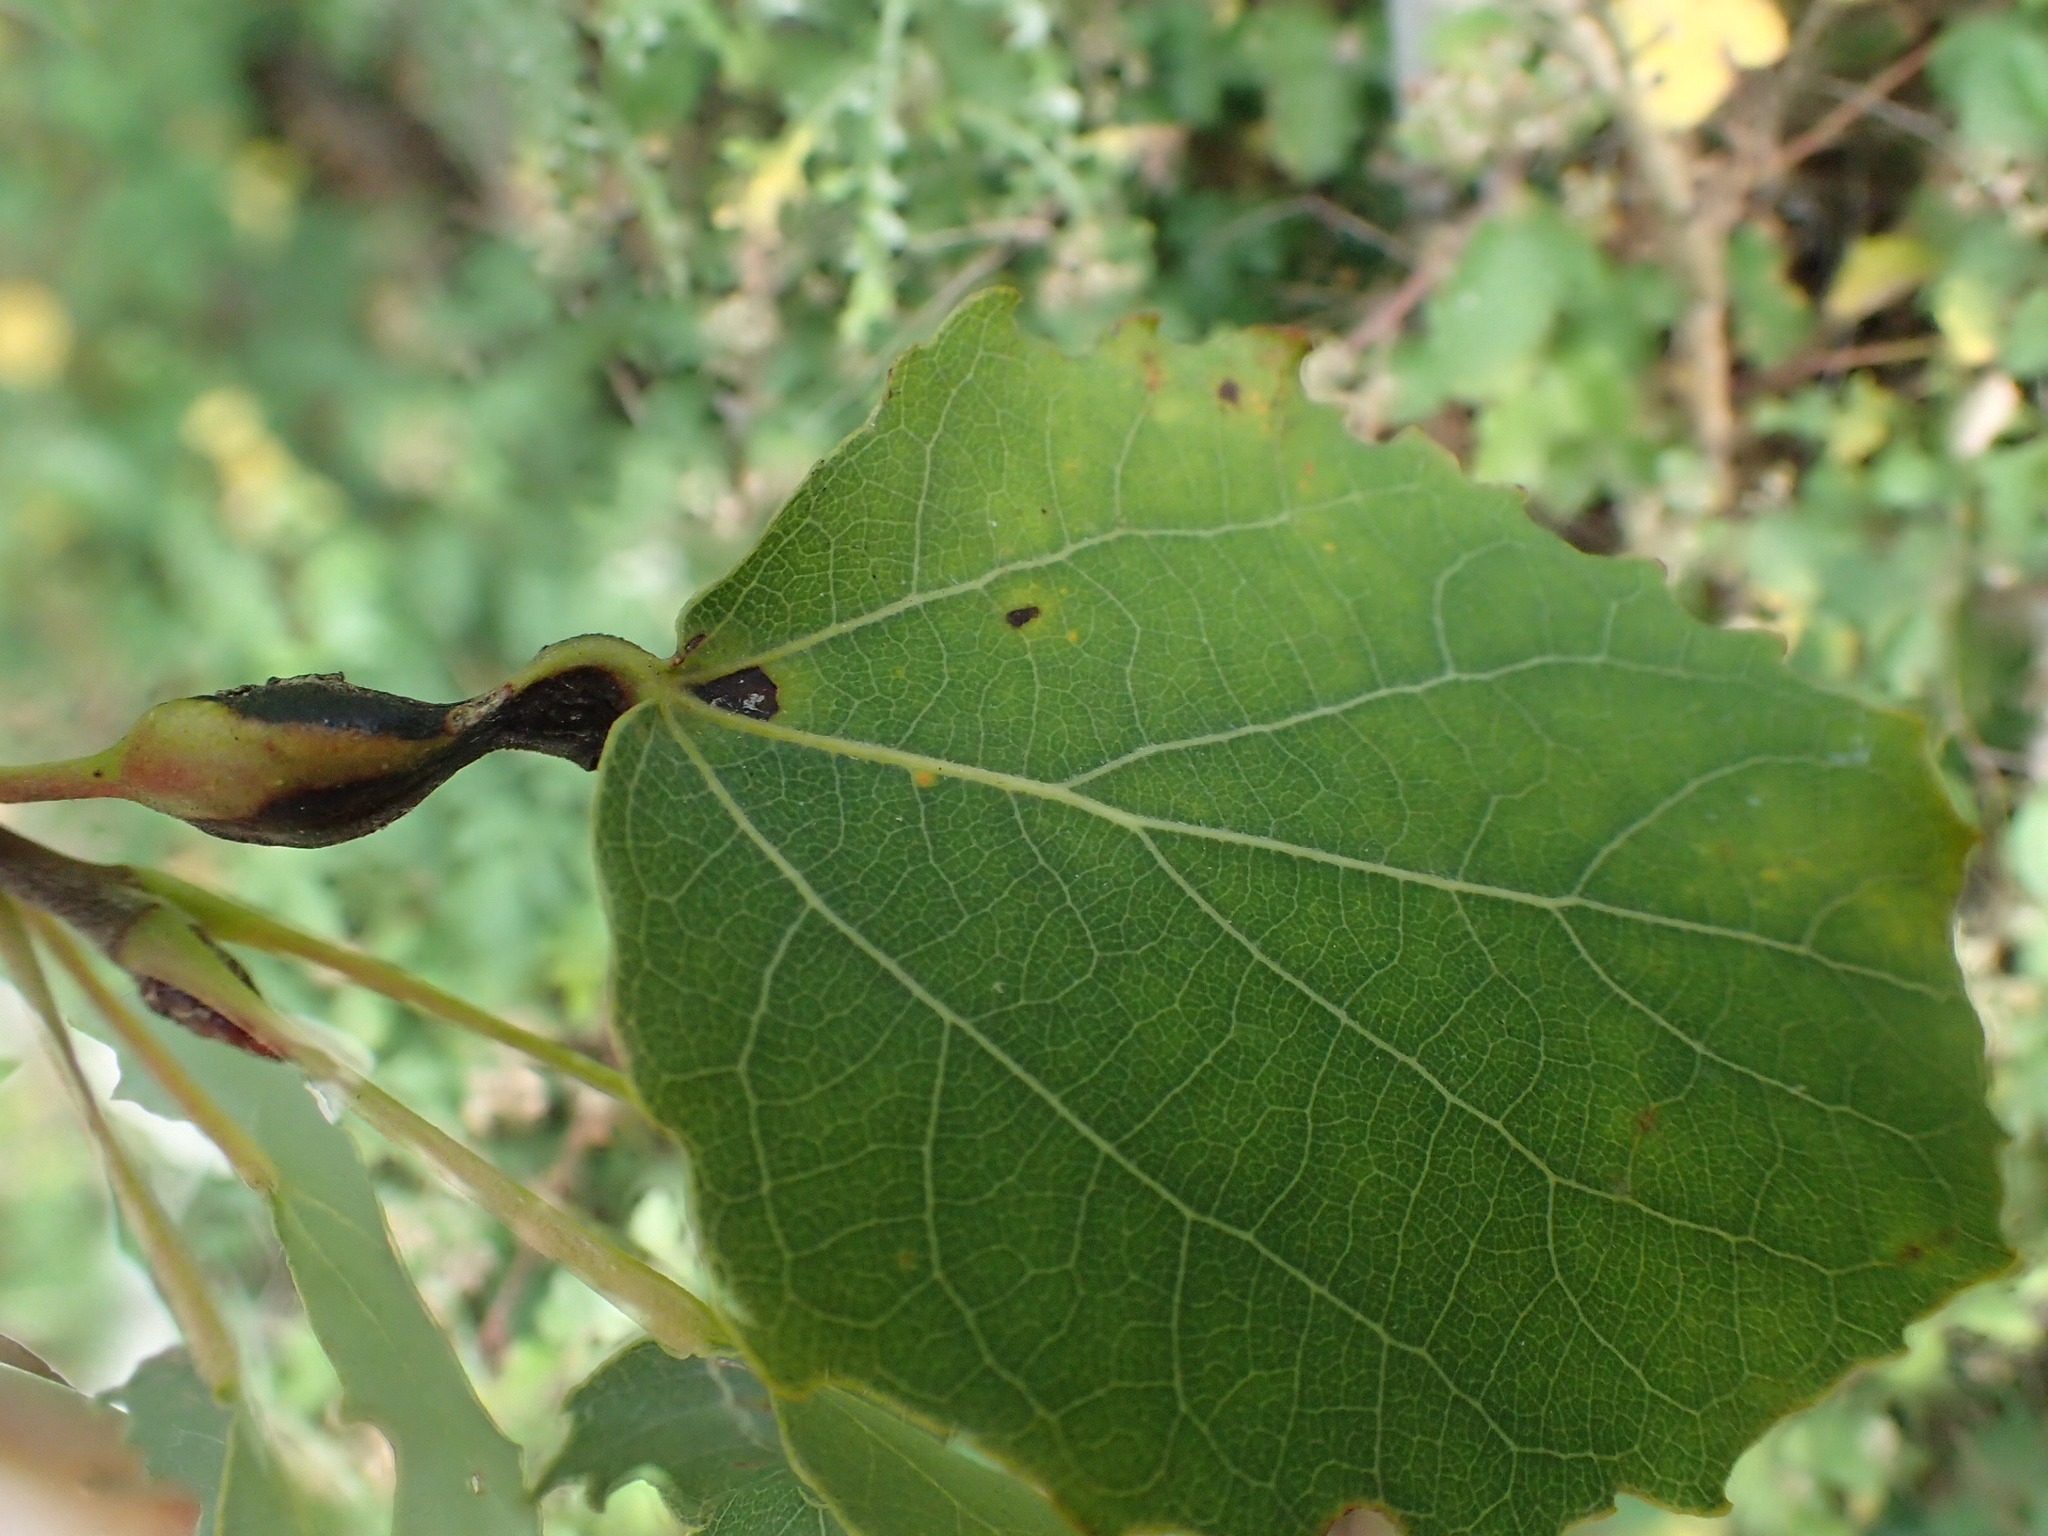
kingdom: Animalia
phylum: Arthropoda
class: Insecta
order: Diptera
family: Cecidomyiidae
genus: Contarinia
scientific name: Contarinia petioli
